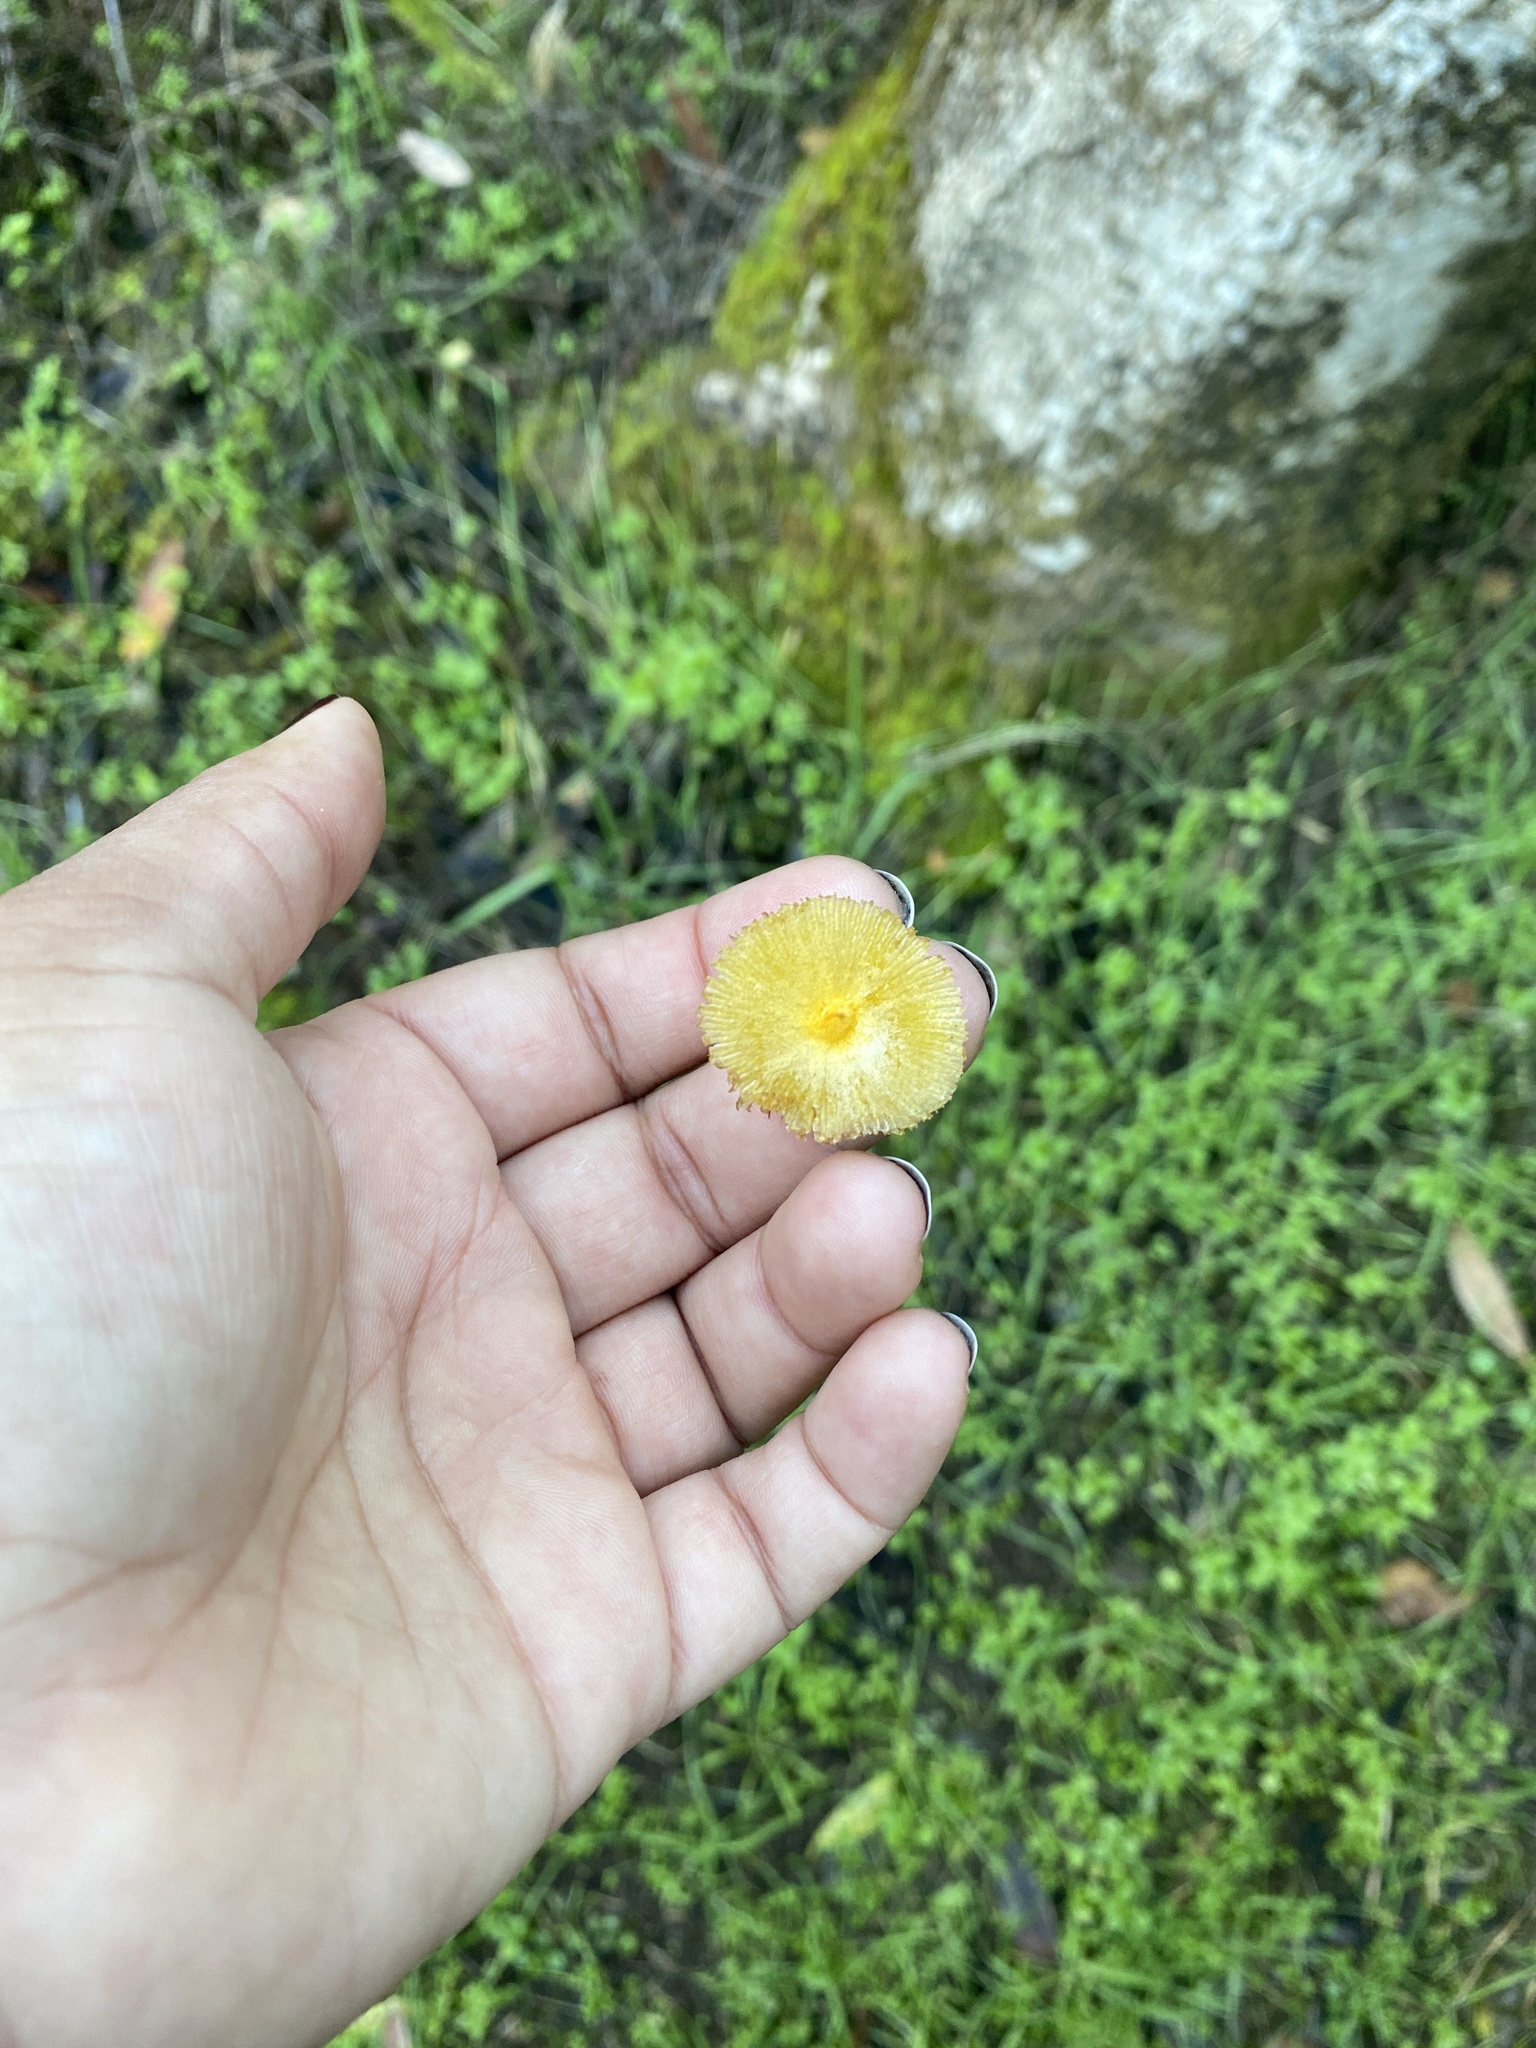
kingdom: Fungi
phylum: Basidiomycota
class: Agaricomycetes
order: Agaricales
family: Bolbitiaceae
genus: Bolbitius
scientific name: Bolbitius titubans
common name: Yellow fieldcap
